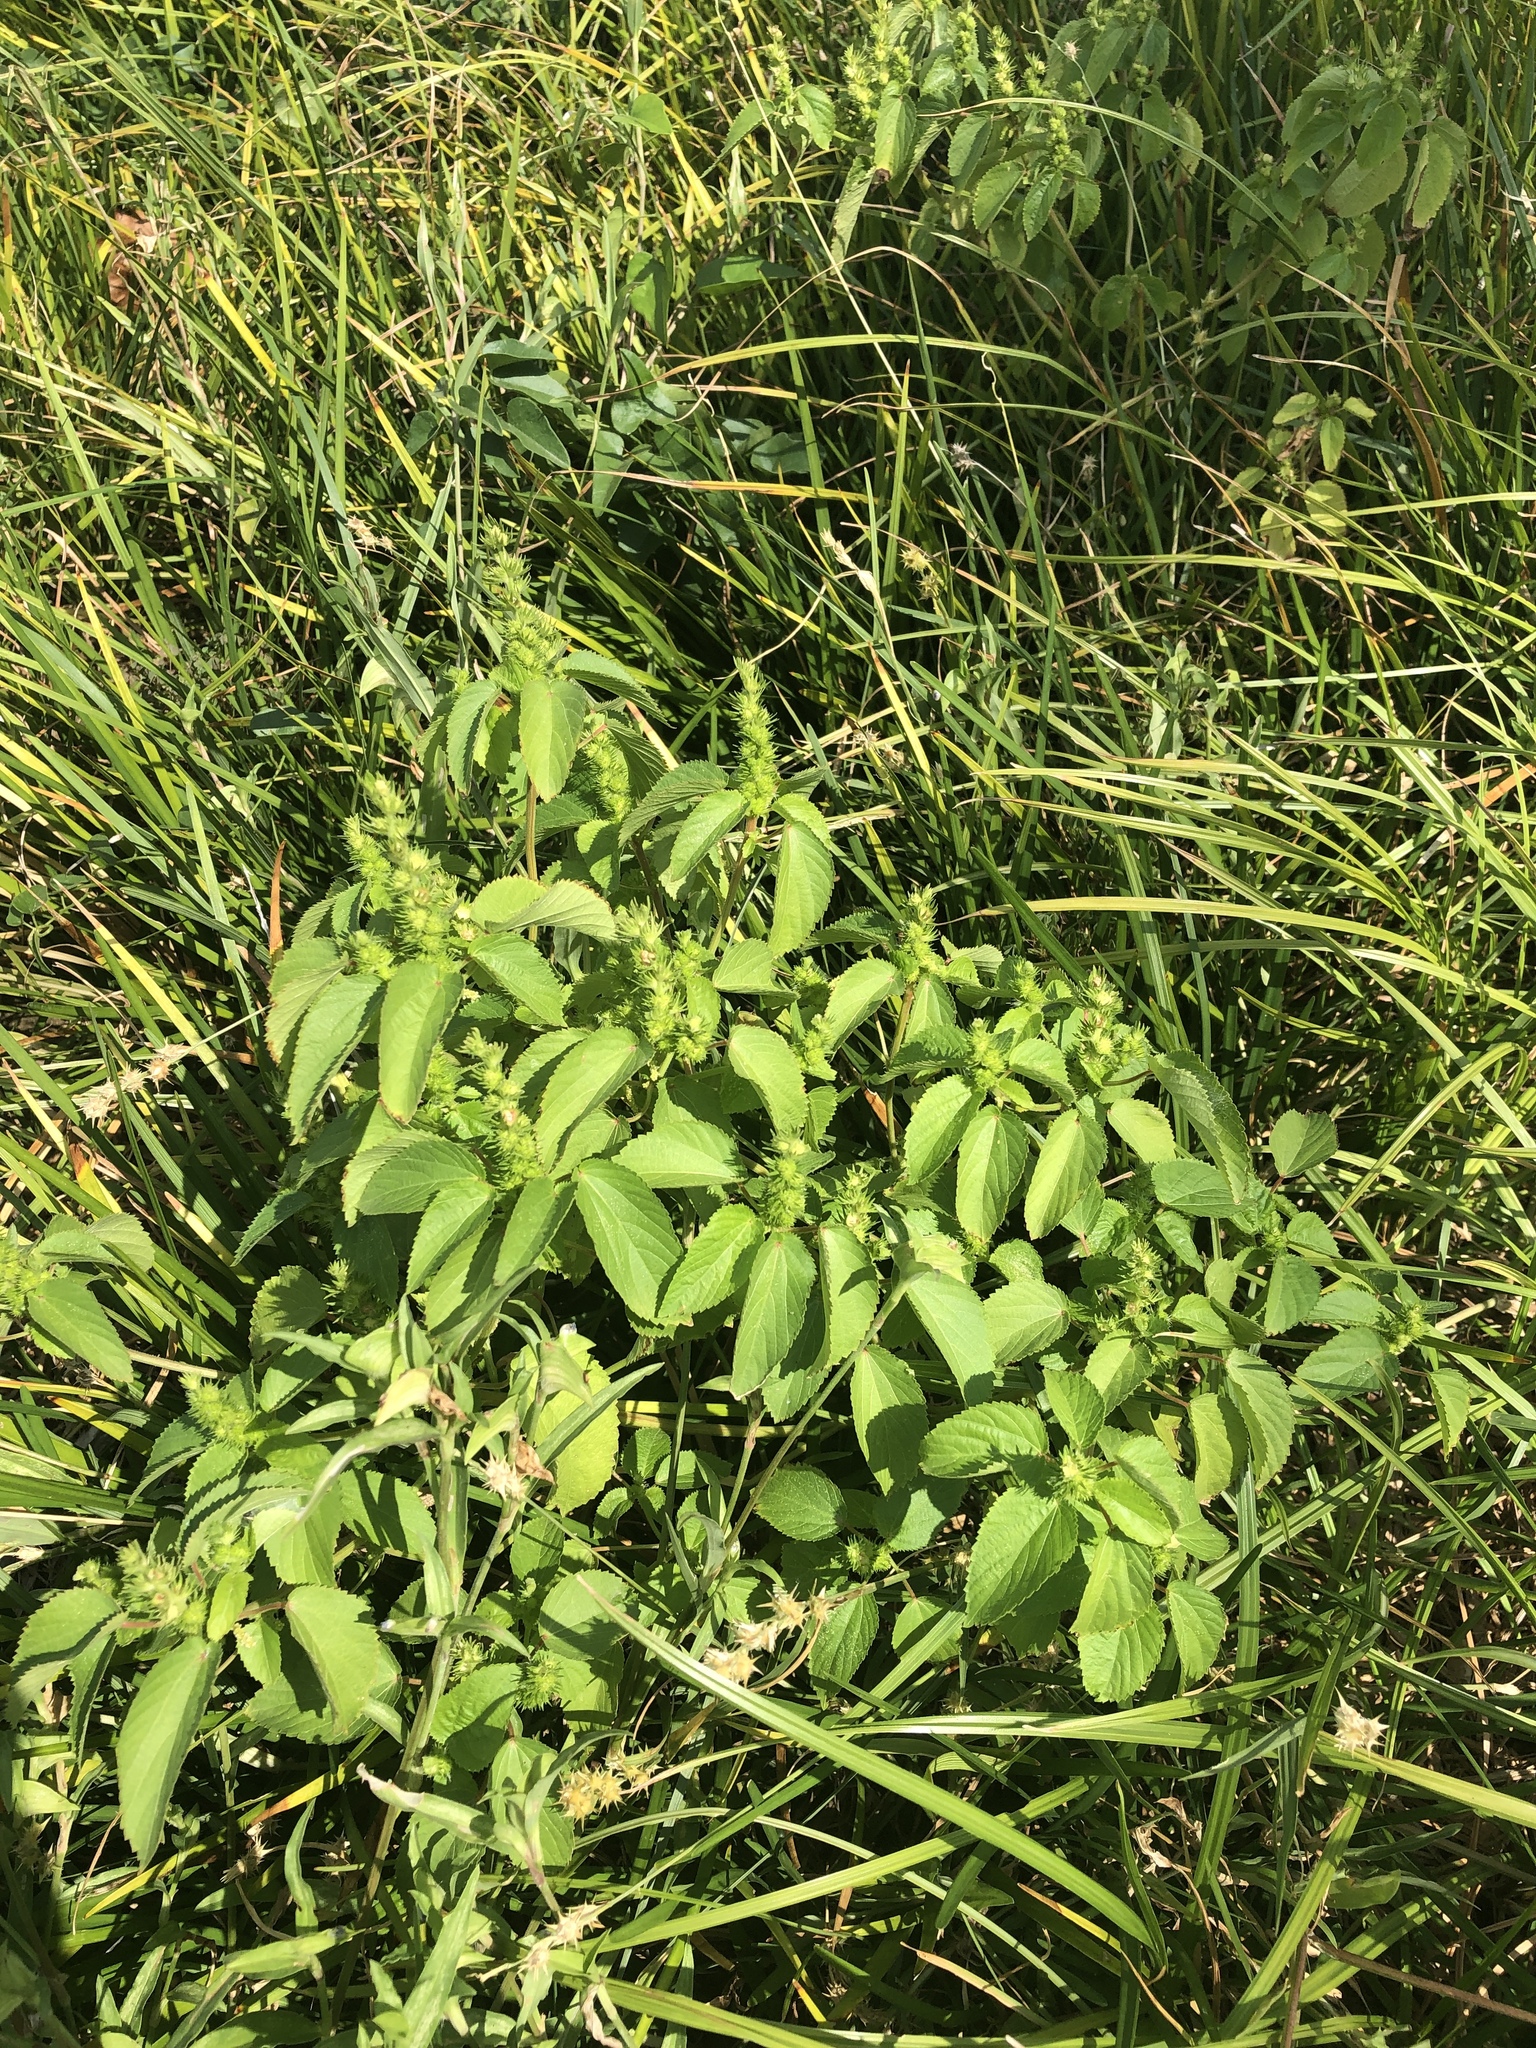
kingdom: Plantae
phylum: Tracheophyta
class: Magnoliopsida
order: Malpighiales
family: Euphorbiaceae
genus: Acalypha
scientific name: Acalypha ostryifolia
